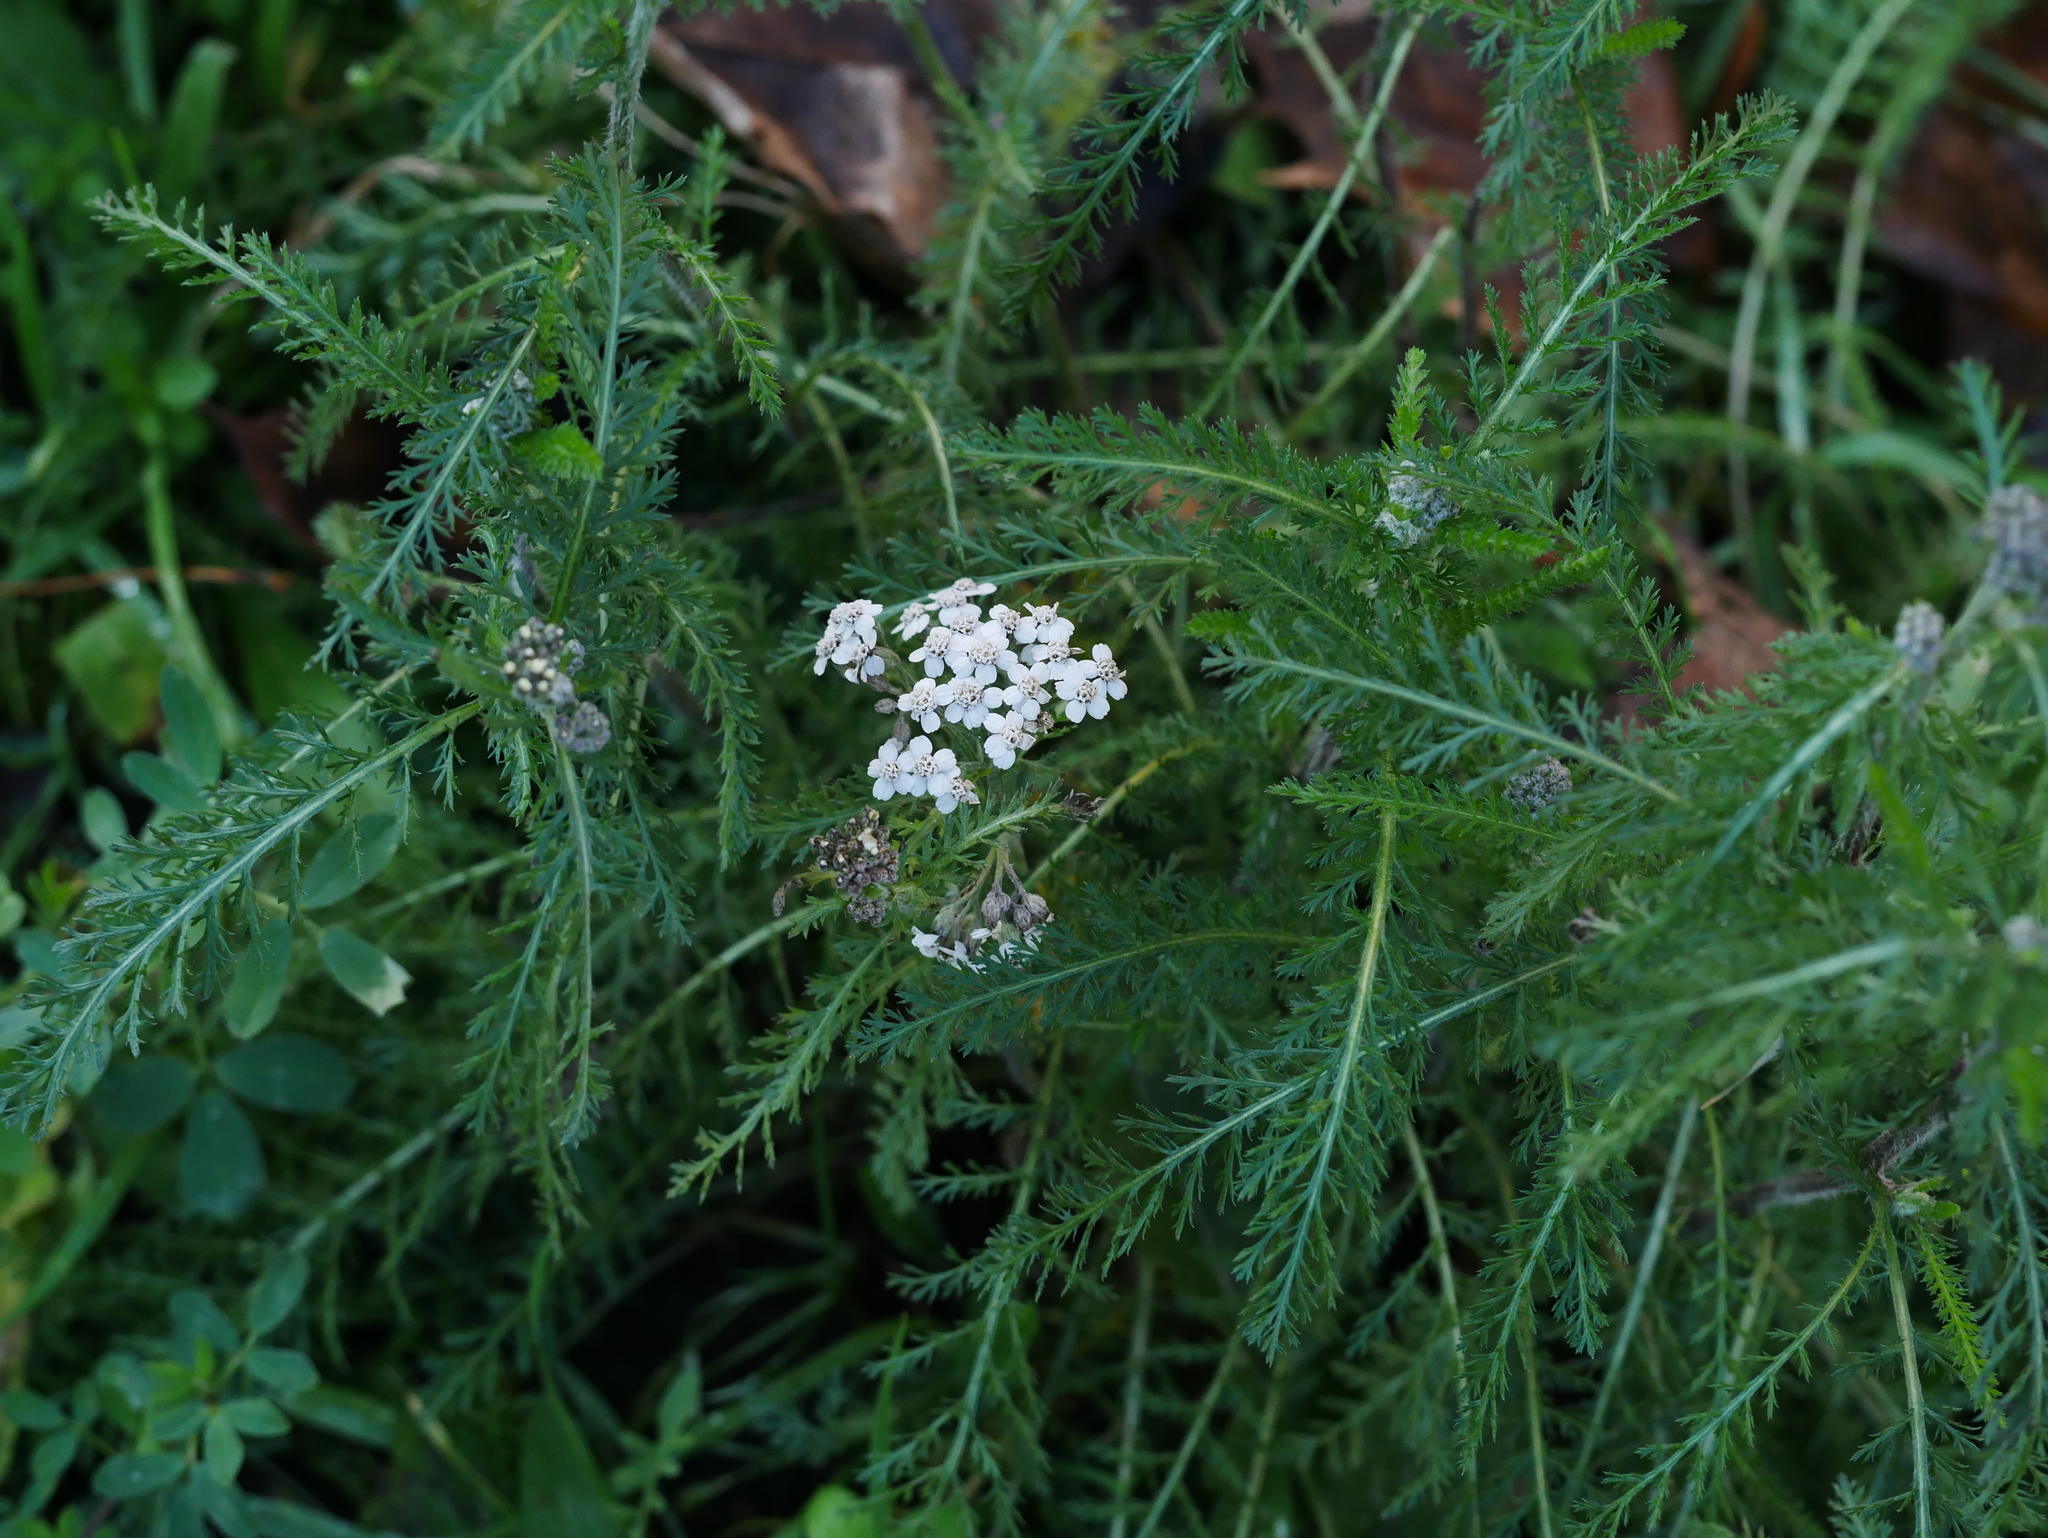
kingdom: Plantae
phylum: Tracheophyta
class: Magnoliopsida
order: Asterales
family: Asteraceae
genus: Achillea
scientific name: Achillea millefolium
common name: Yarrow
